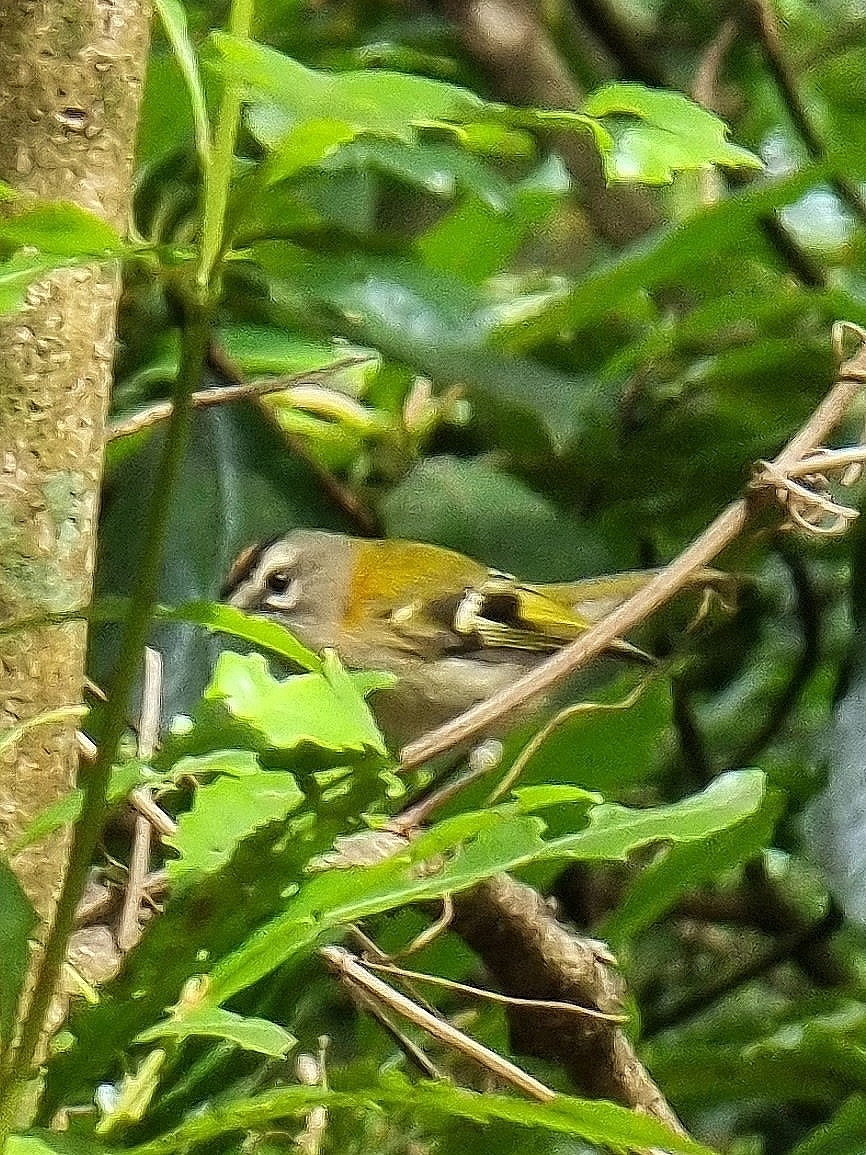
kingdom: Animalia
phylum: Chordata
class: Aves
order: Passeriformes
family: Regulidae
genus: Regulus
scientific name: Regulus madeirensis
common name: Madeira firecrest
